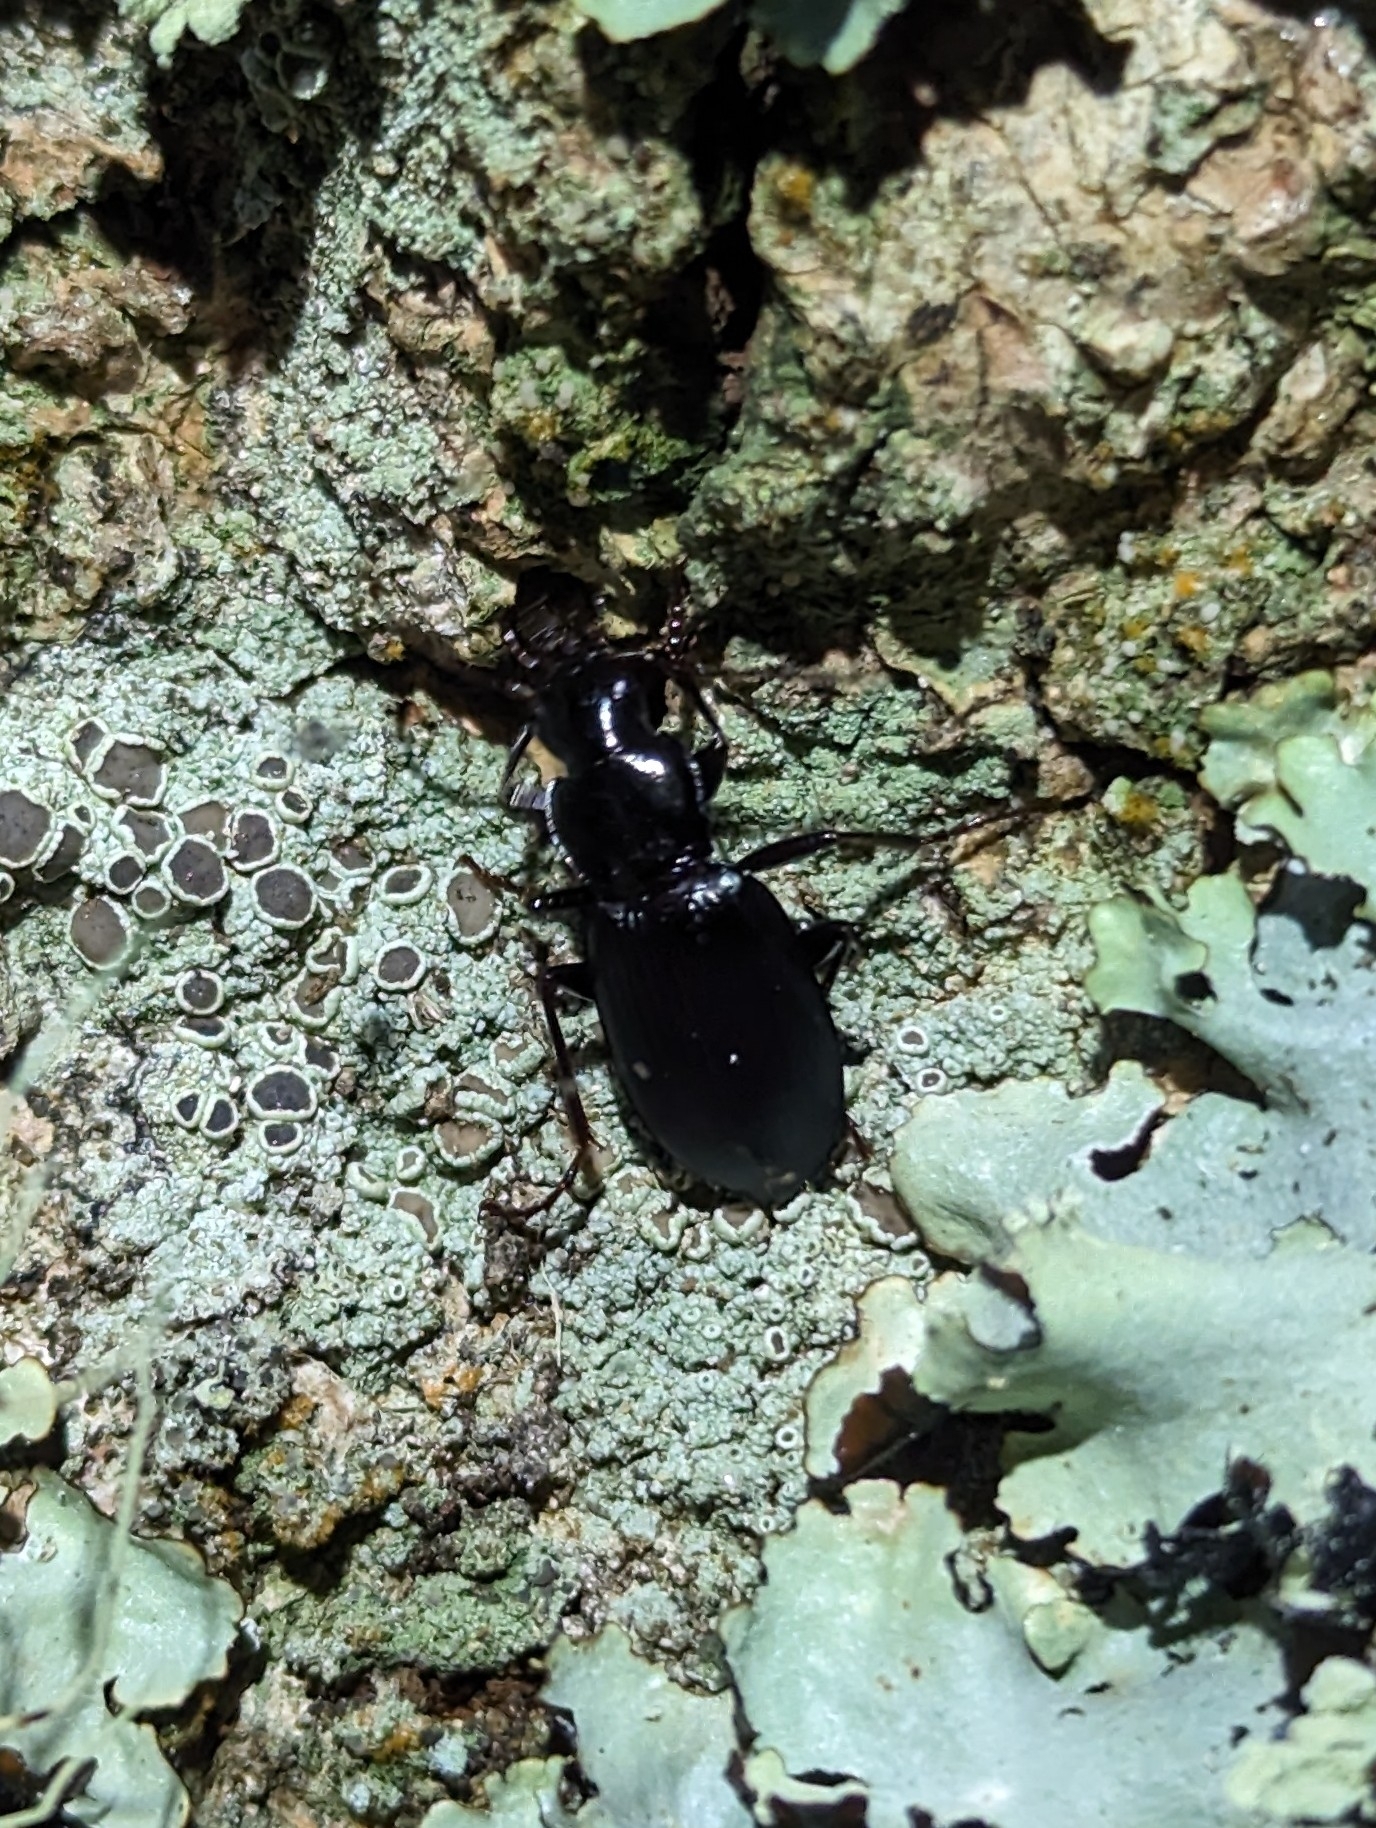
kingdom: Animalia
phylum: Arthropoda
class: Insecta
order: Coleoptera
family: Carabidae
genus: Laemostenus
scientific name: Laemostenus complanatus
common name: Cosmopolitan ground beetle
